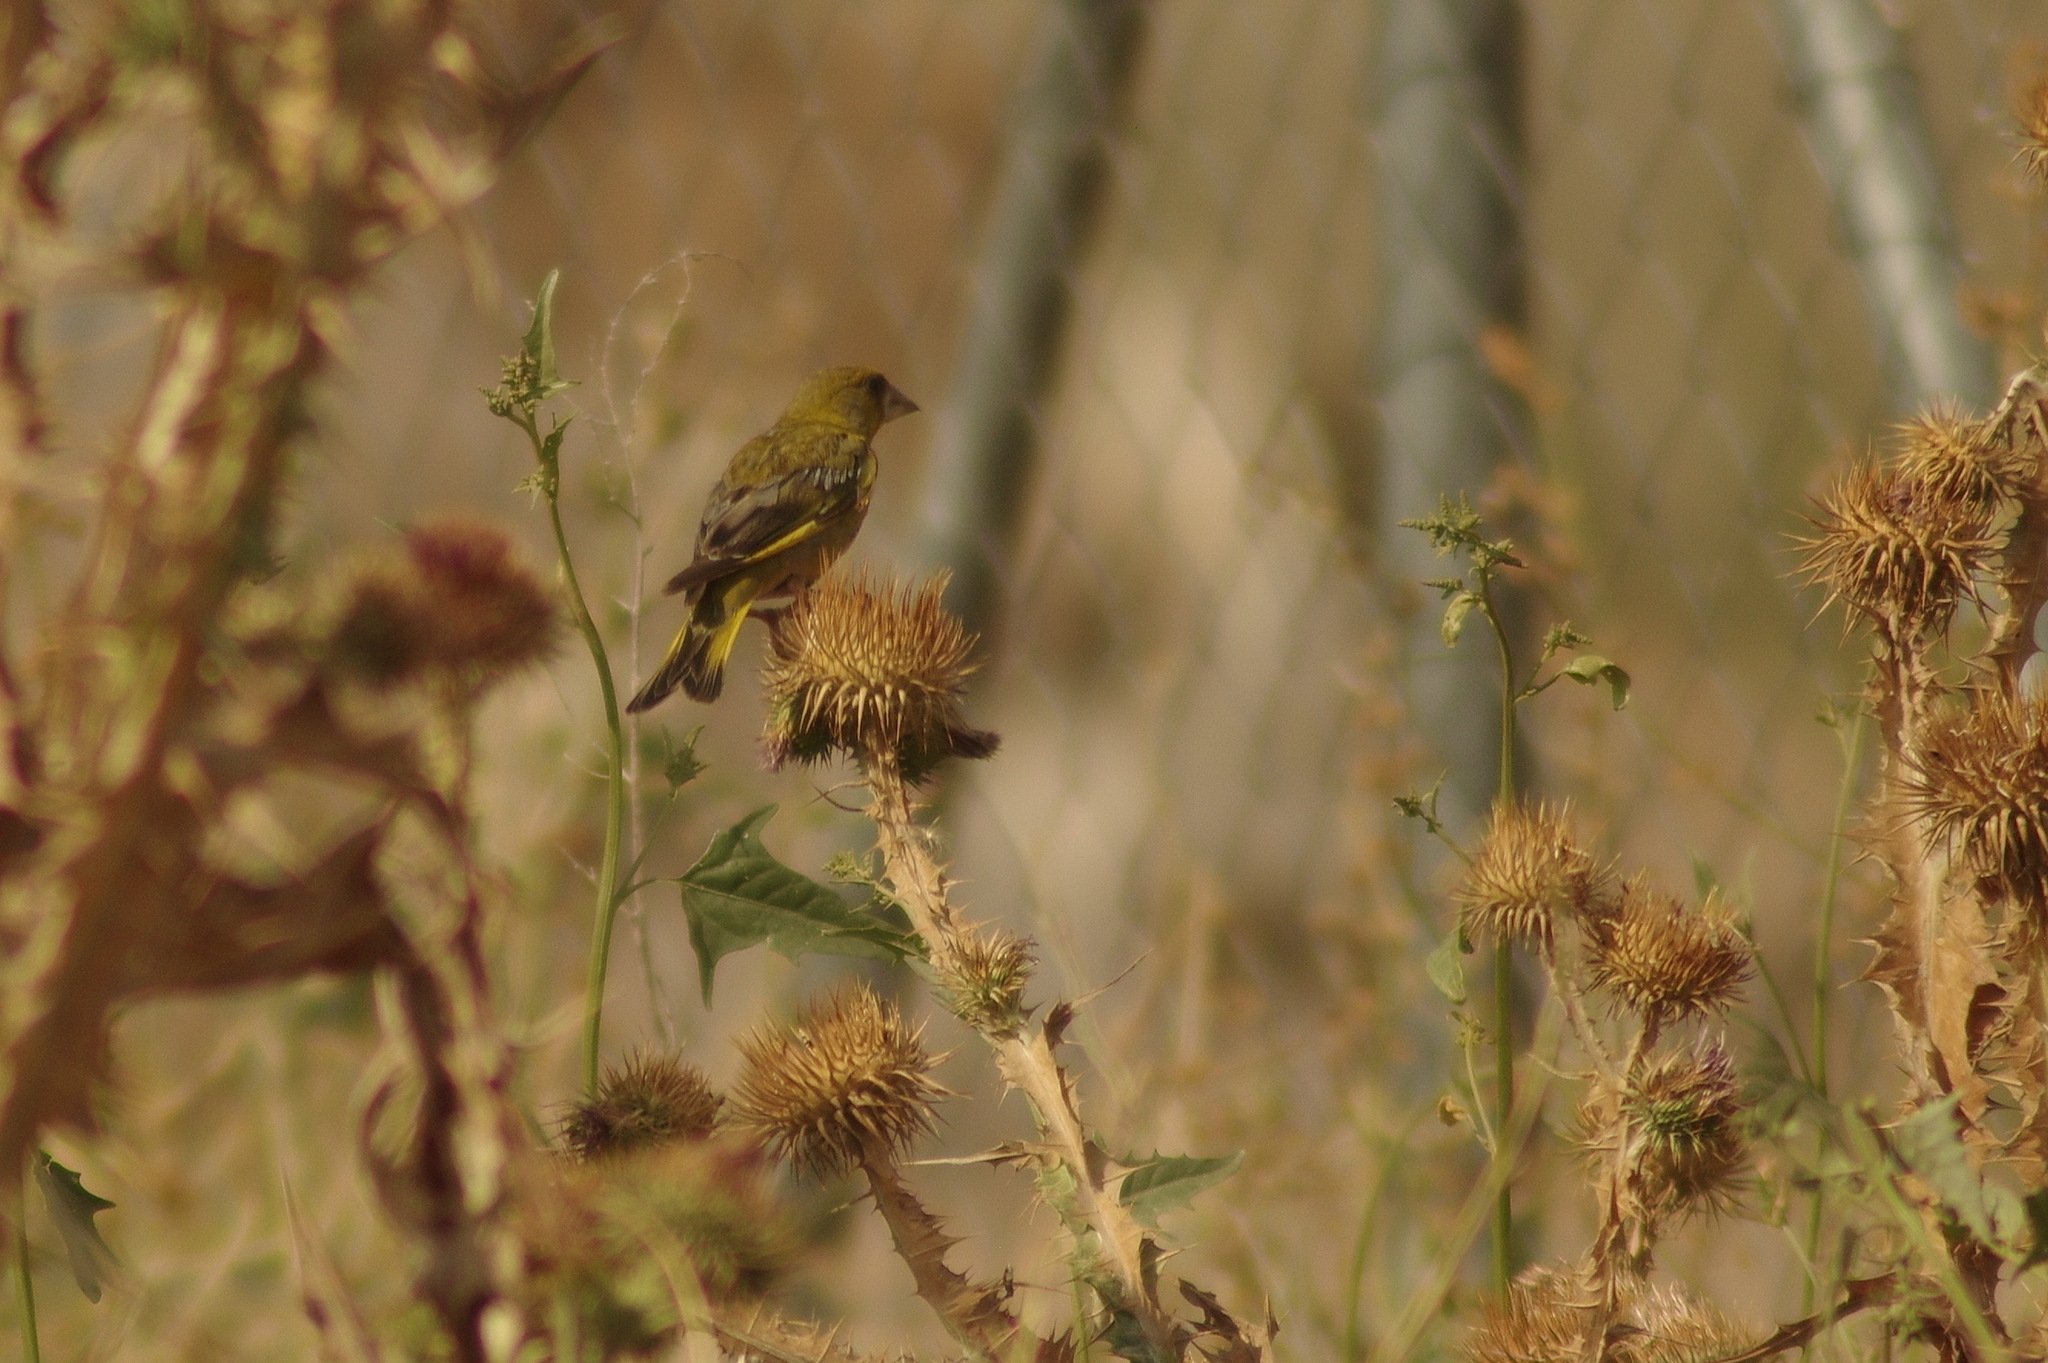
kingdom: Plantae
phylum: Tracheophyta
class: Liliopsida
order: Poales
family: Poaceae
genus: Chloris
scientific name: Chloris chloris
